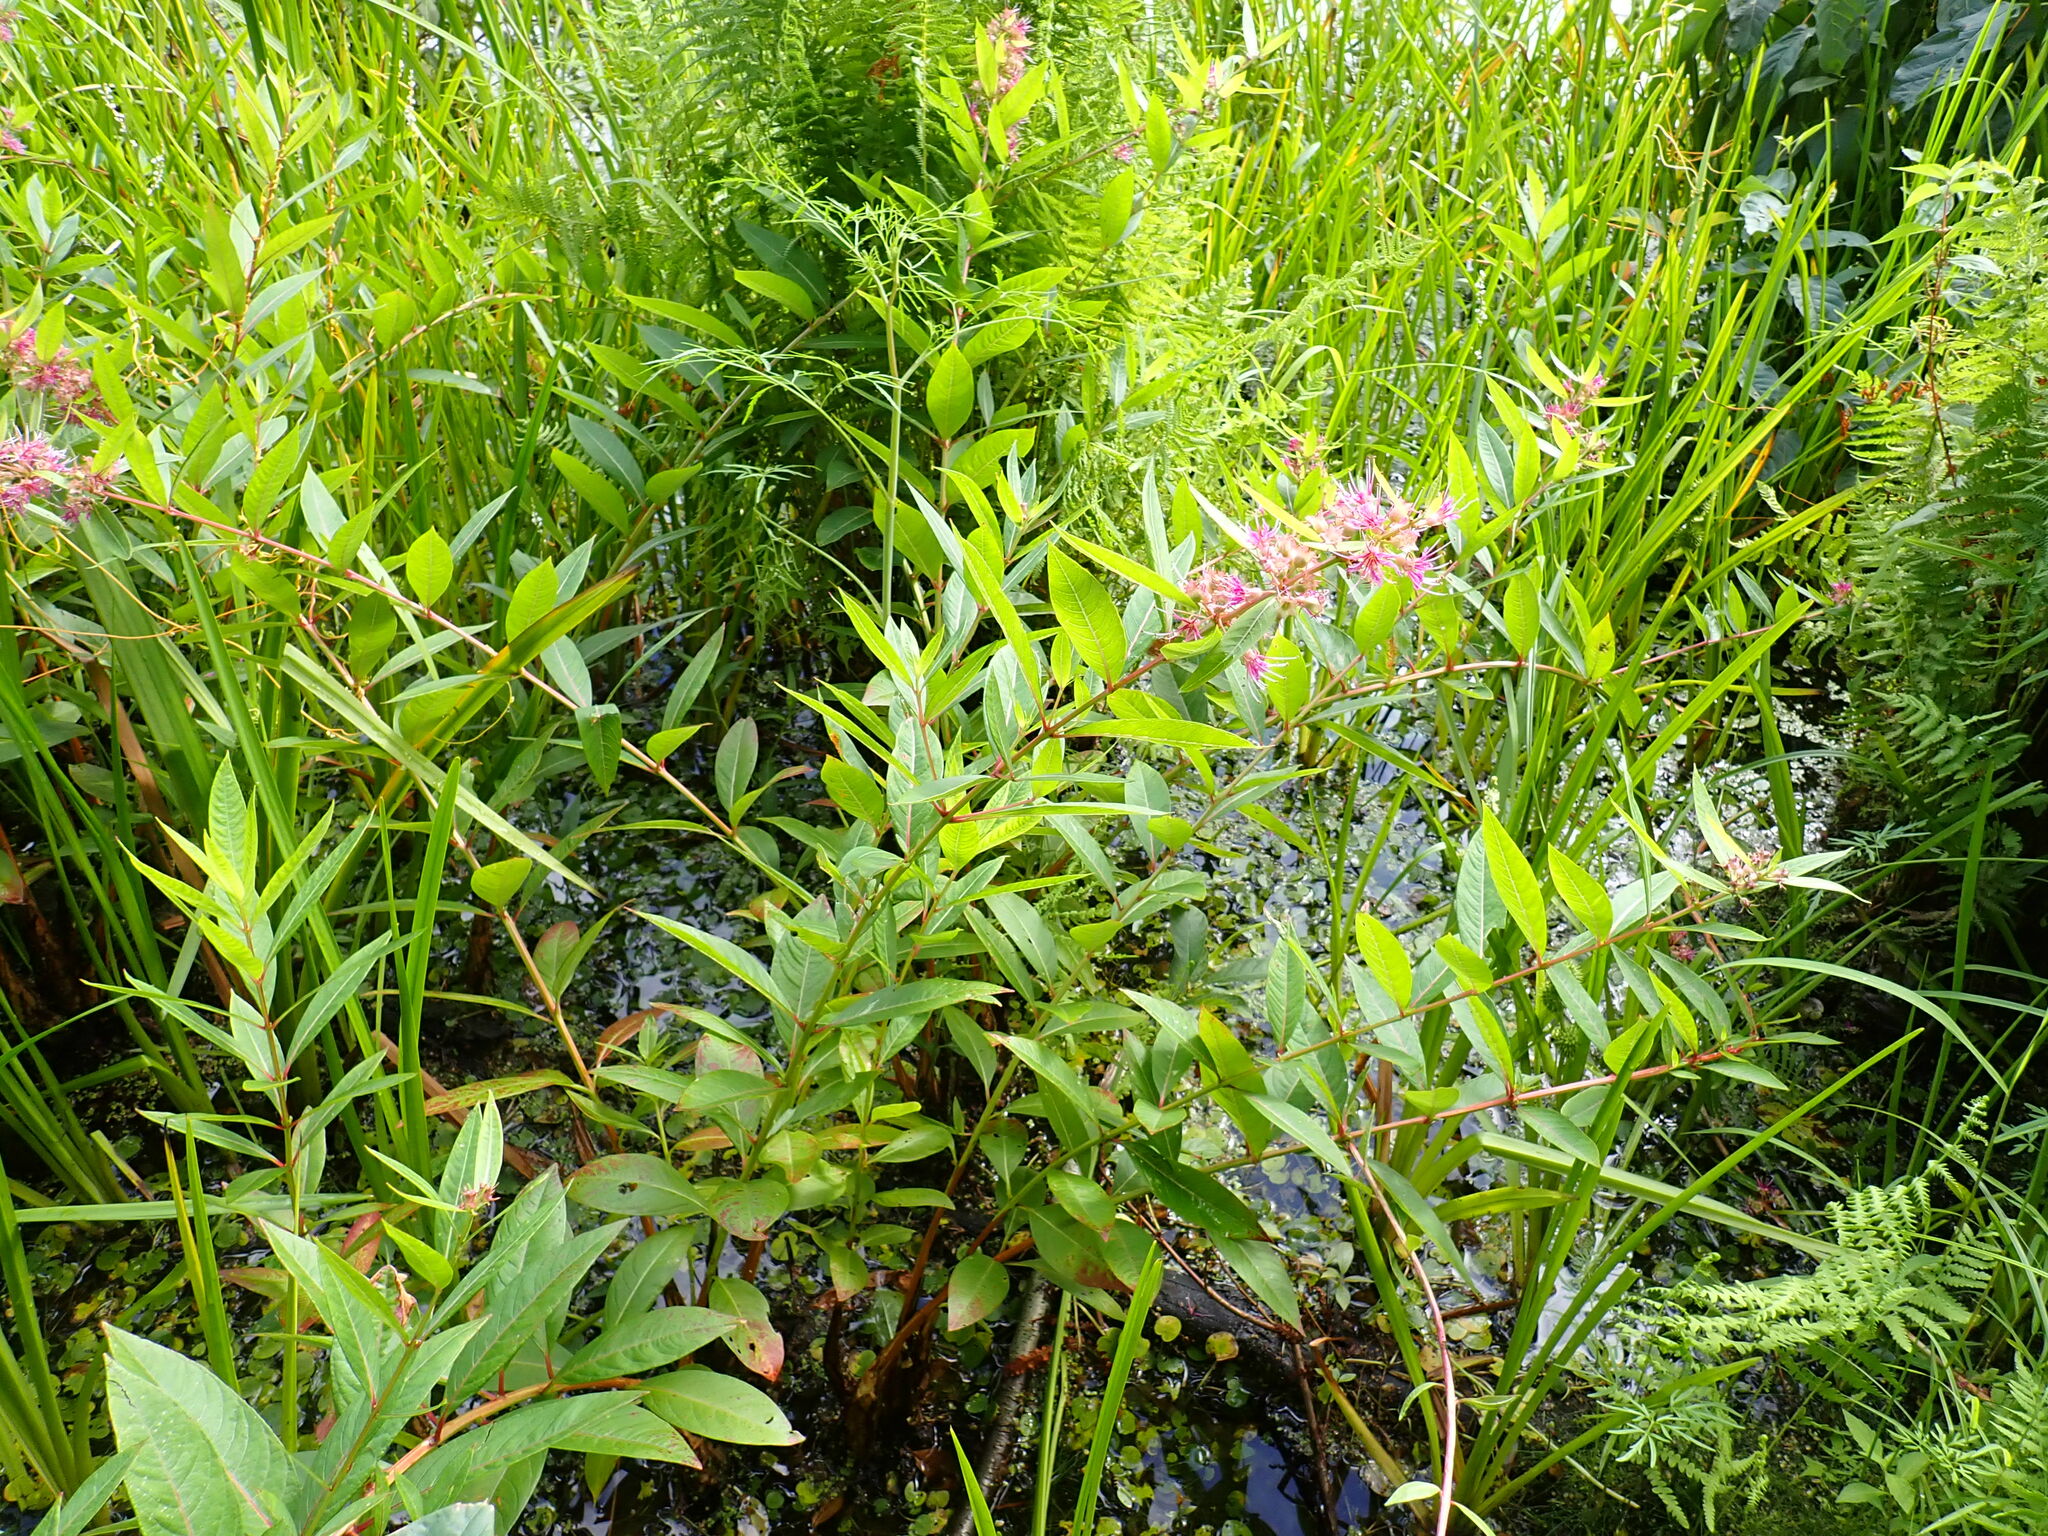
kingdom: Plantae
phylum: Tracheophyta
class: Magnoliopsida
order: Myrtales
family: Lythraceae
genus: Decodon
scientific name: Decodon verticillatus
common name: Hairy swamp loosestrife
